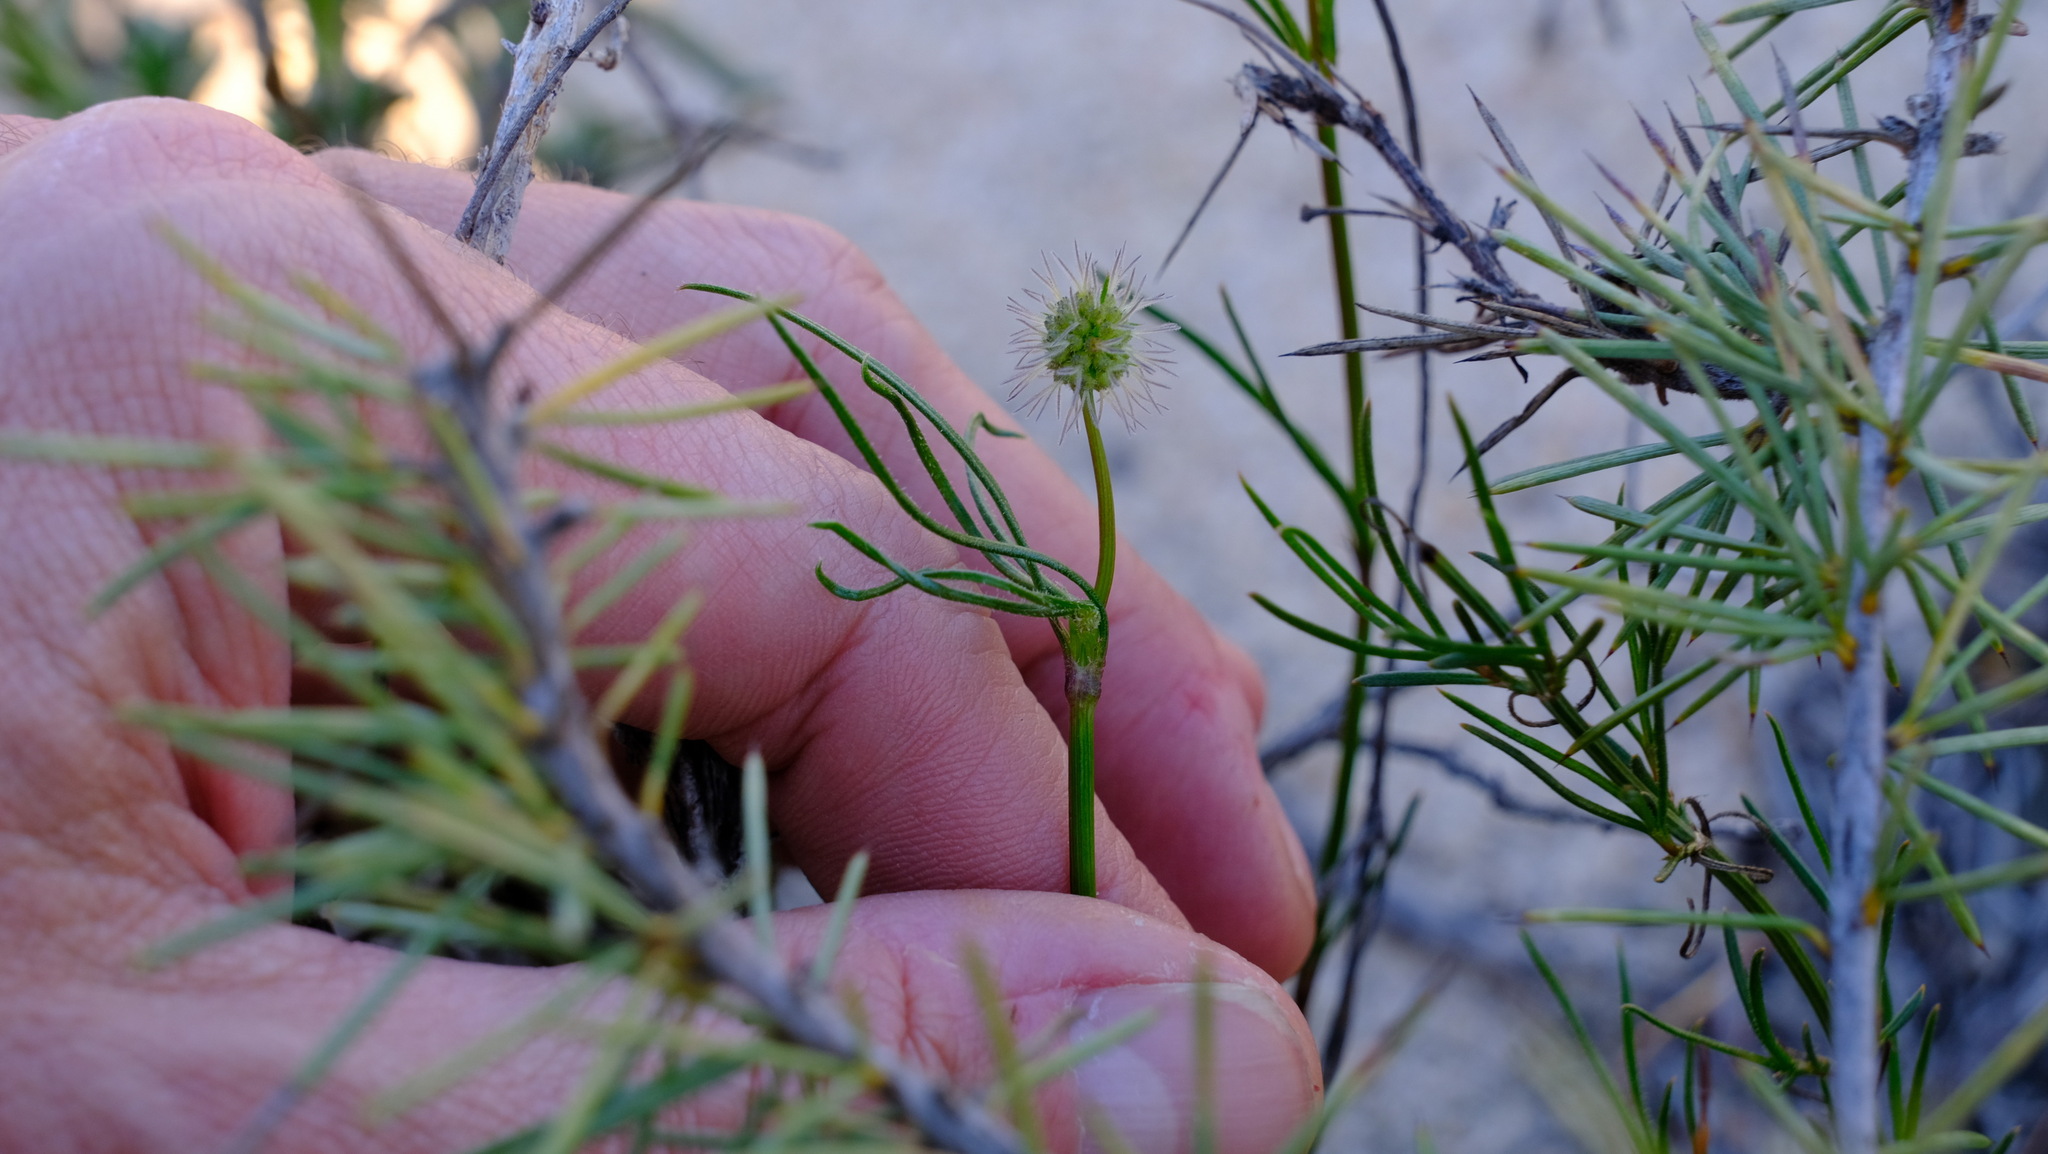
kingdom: Plantae
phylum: Tracheophyta
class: Magnoliopsida
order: Gentianales
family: Rubiaceae
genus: Opercularia
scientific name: Opercularia vaginata
